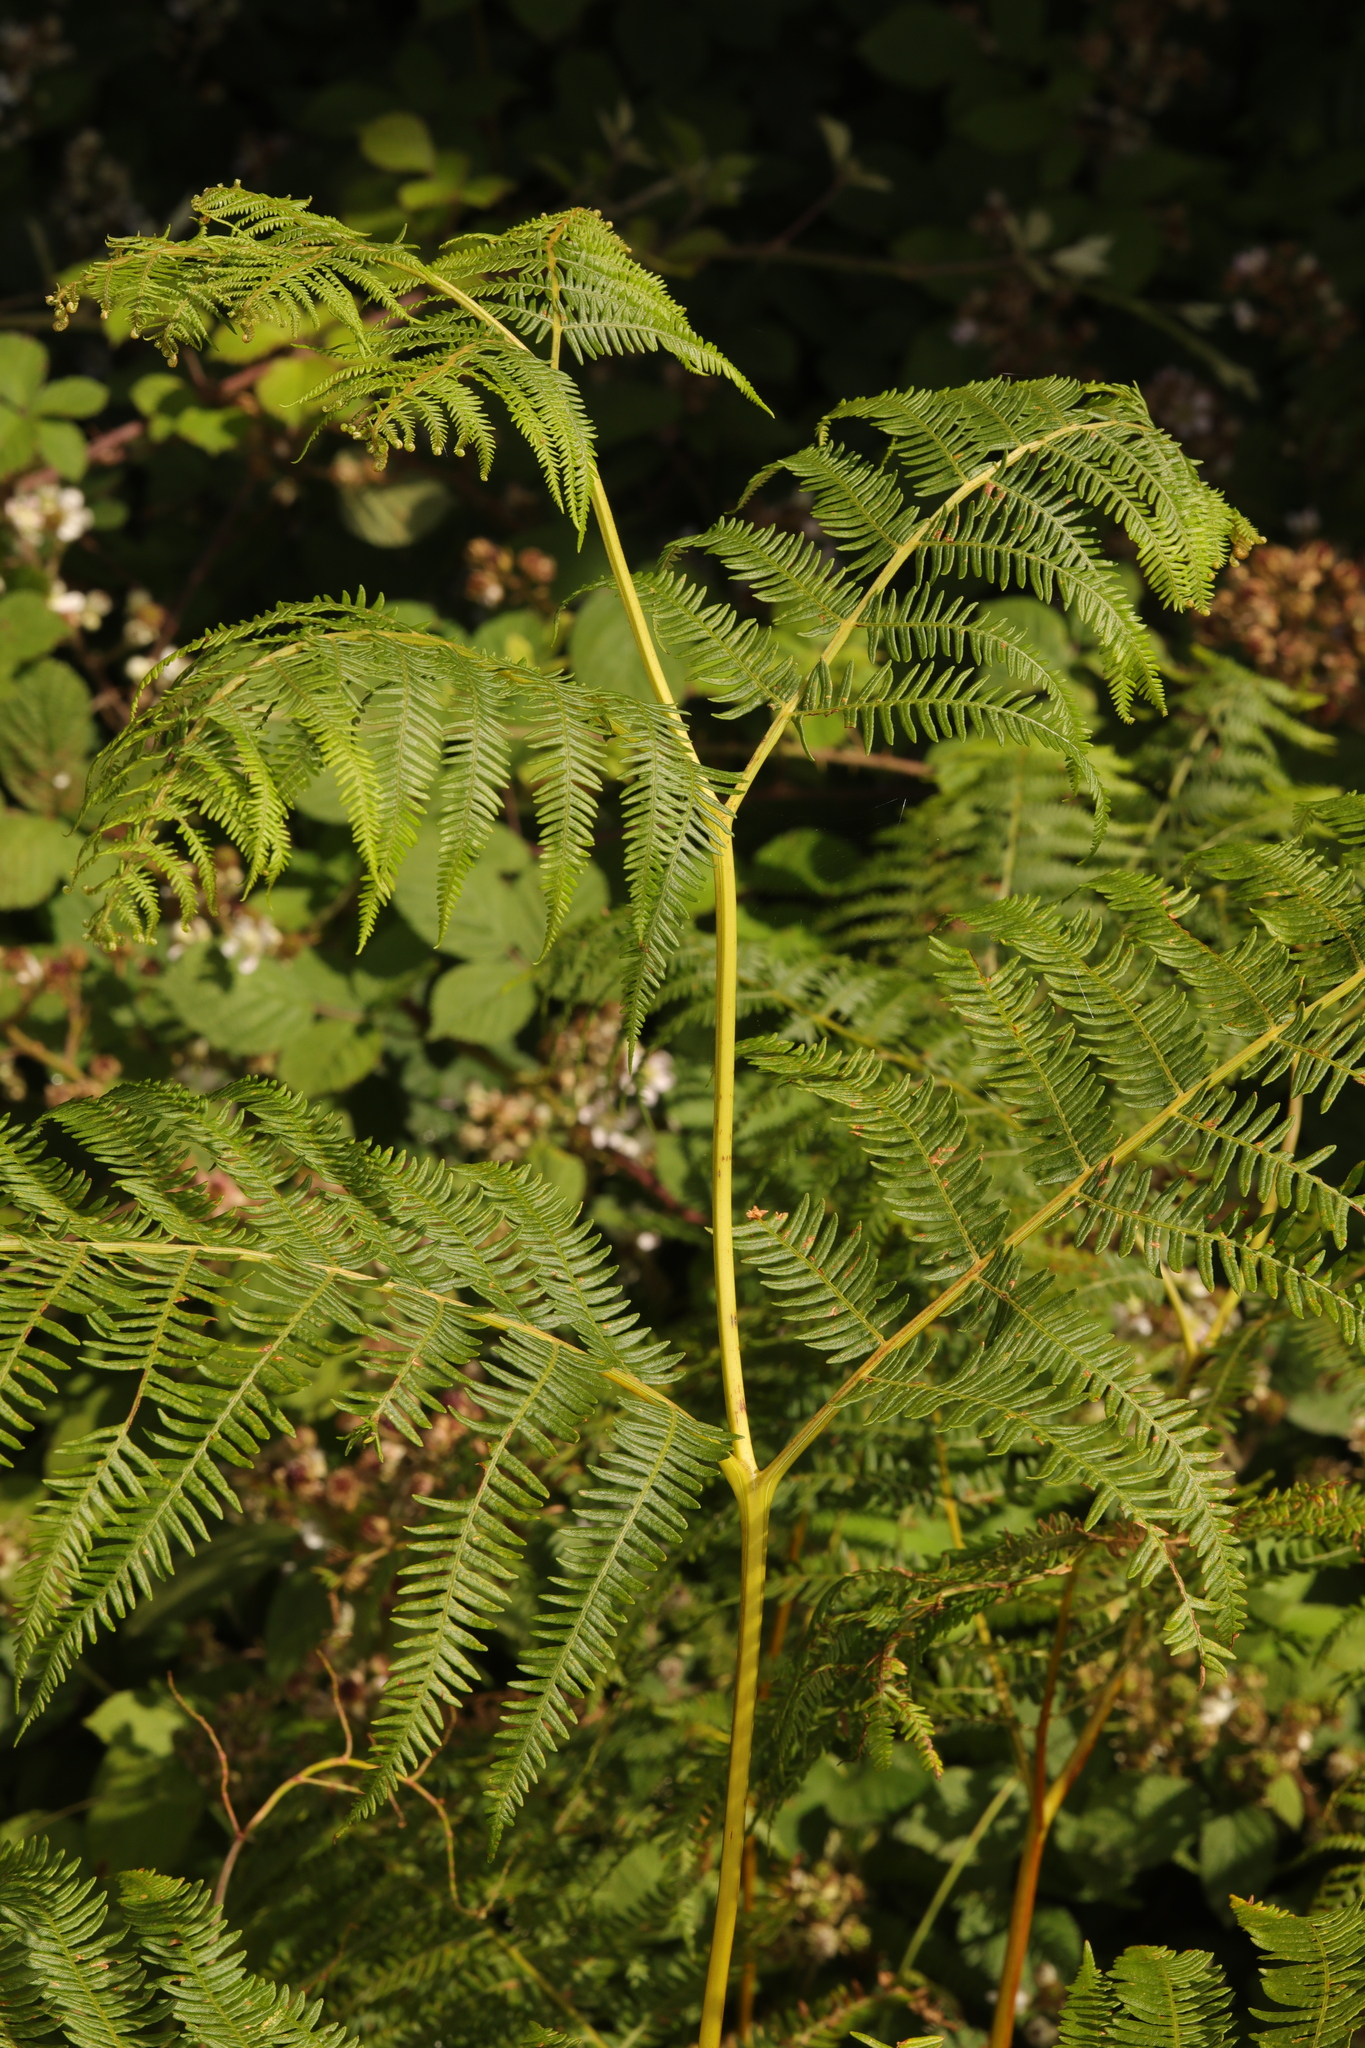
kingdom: Plantae
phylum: Tracheophyta
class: Polypodiopsida
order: Polypodiales
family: Dennstaedtiaceae
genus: Pteridium
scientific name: Pteridium aquilinum
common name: Bracken
